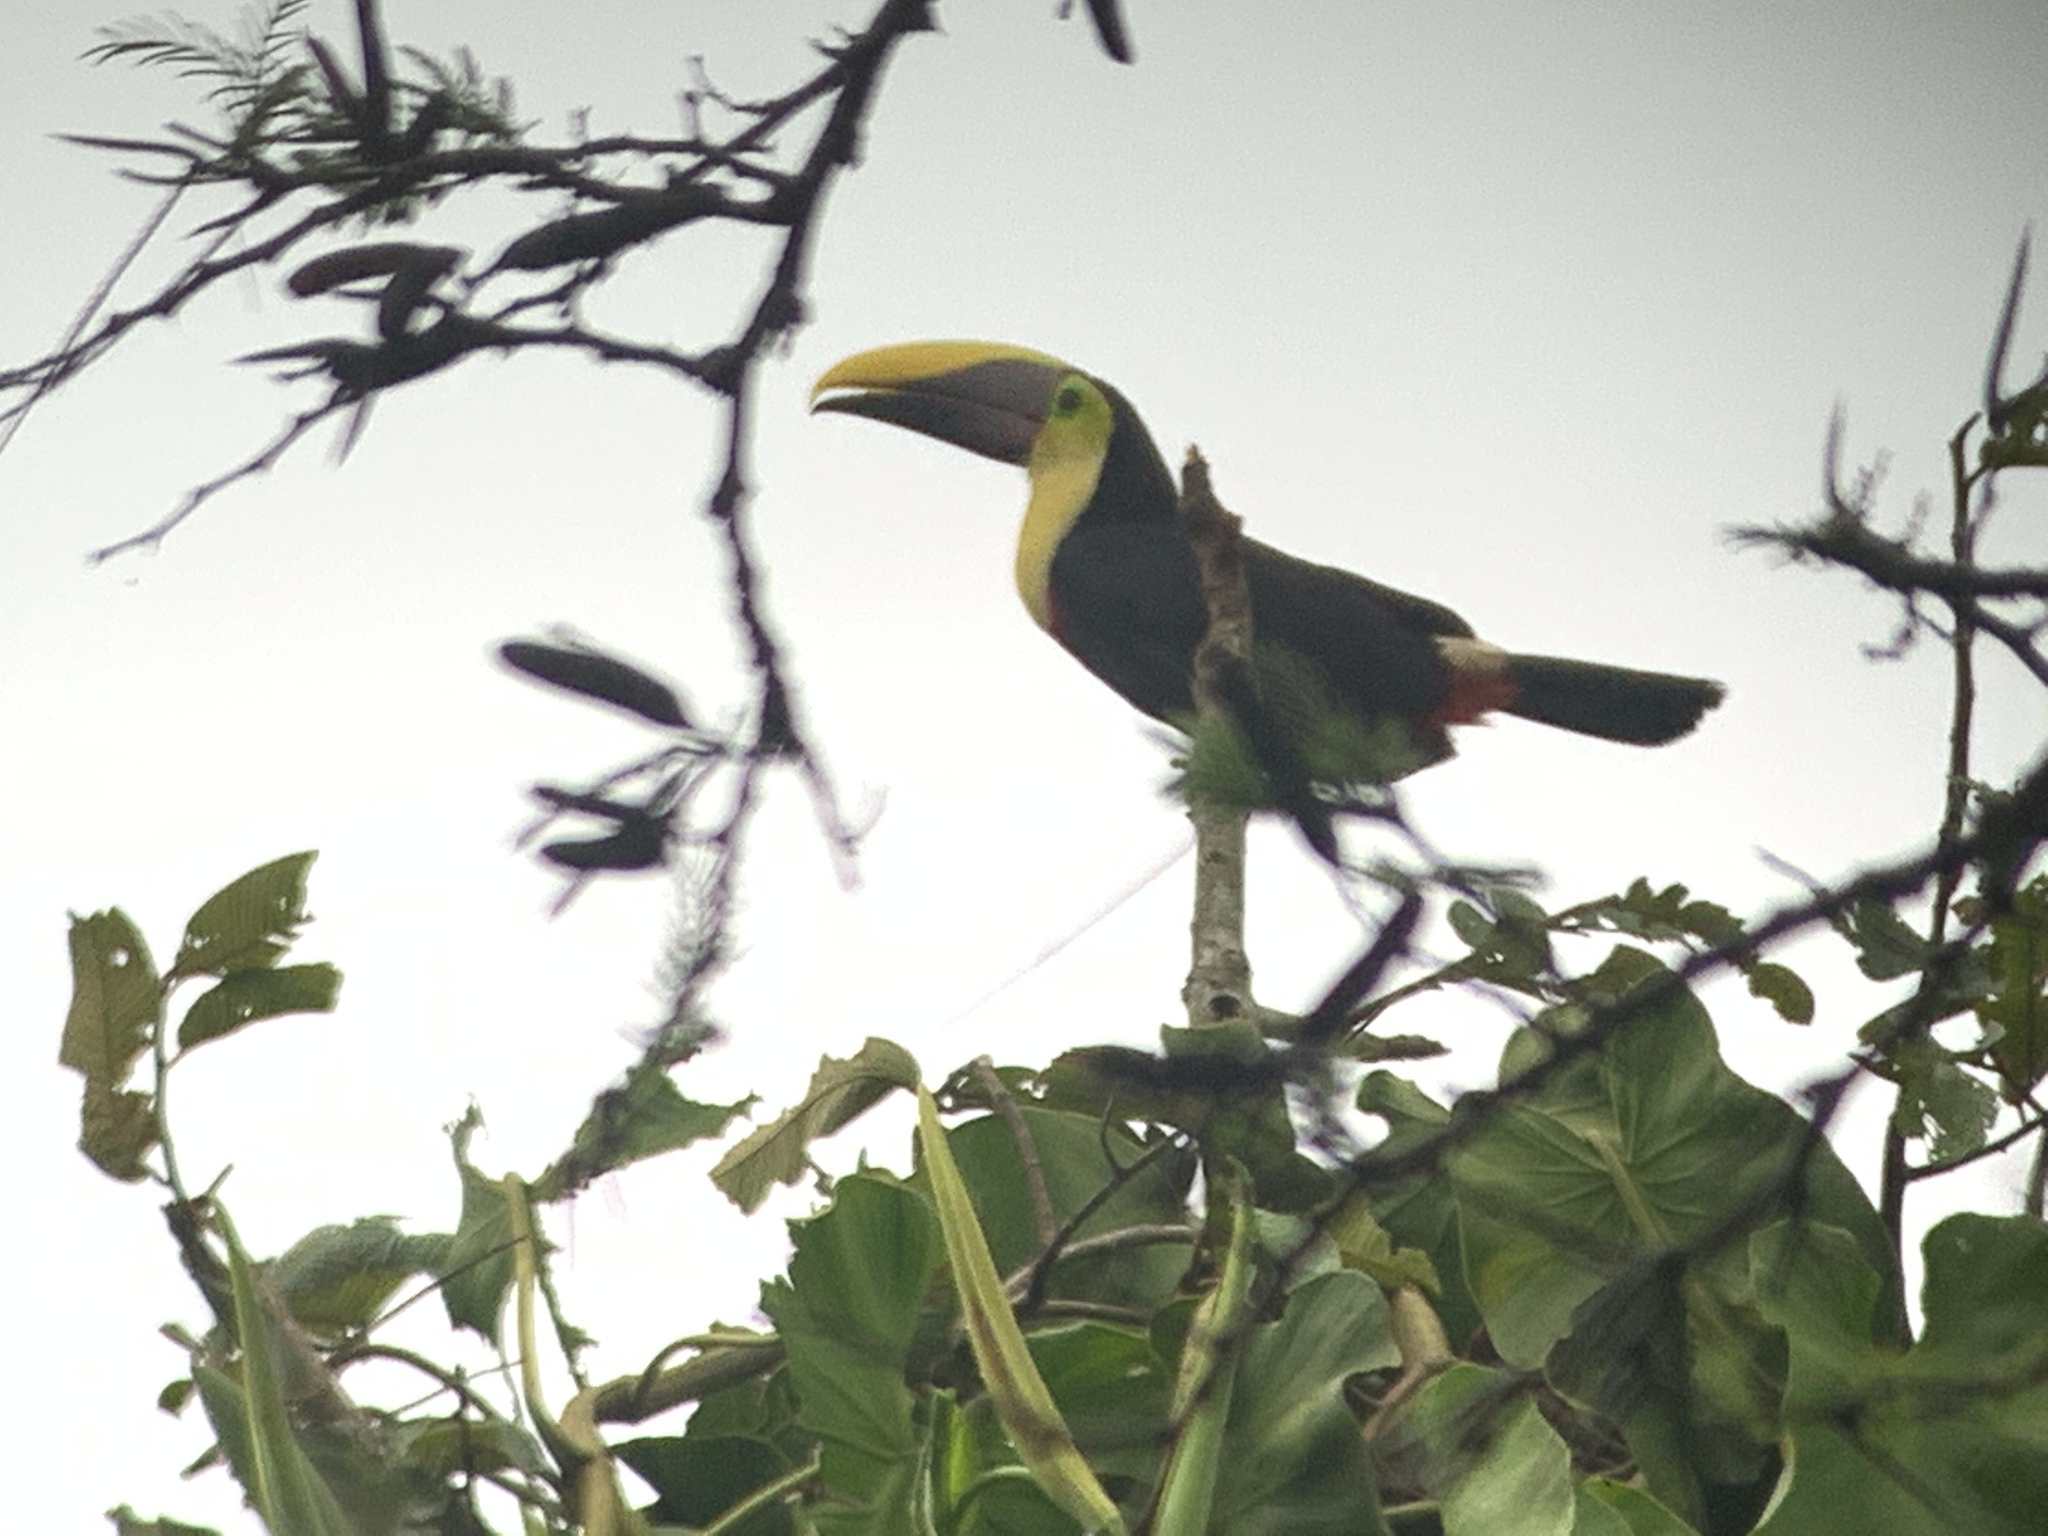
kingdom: Animalia
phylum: Chordata
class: Aves
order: Piciformes
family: Ramphastidae
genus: Ramphastos
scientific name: Ramphastos ambiguus
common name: Yellow-throated toucan
